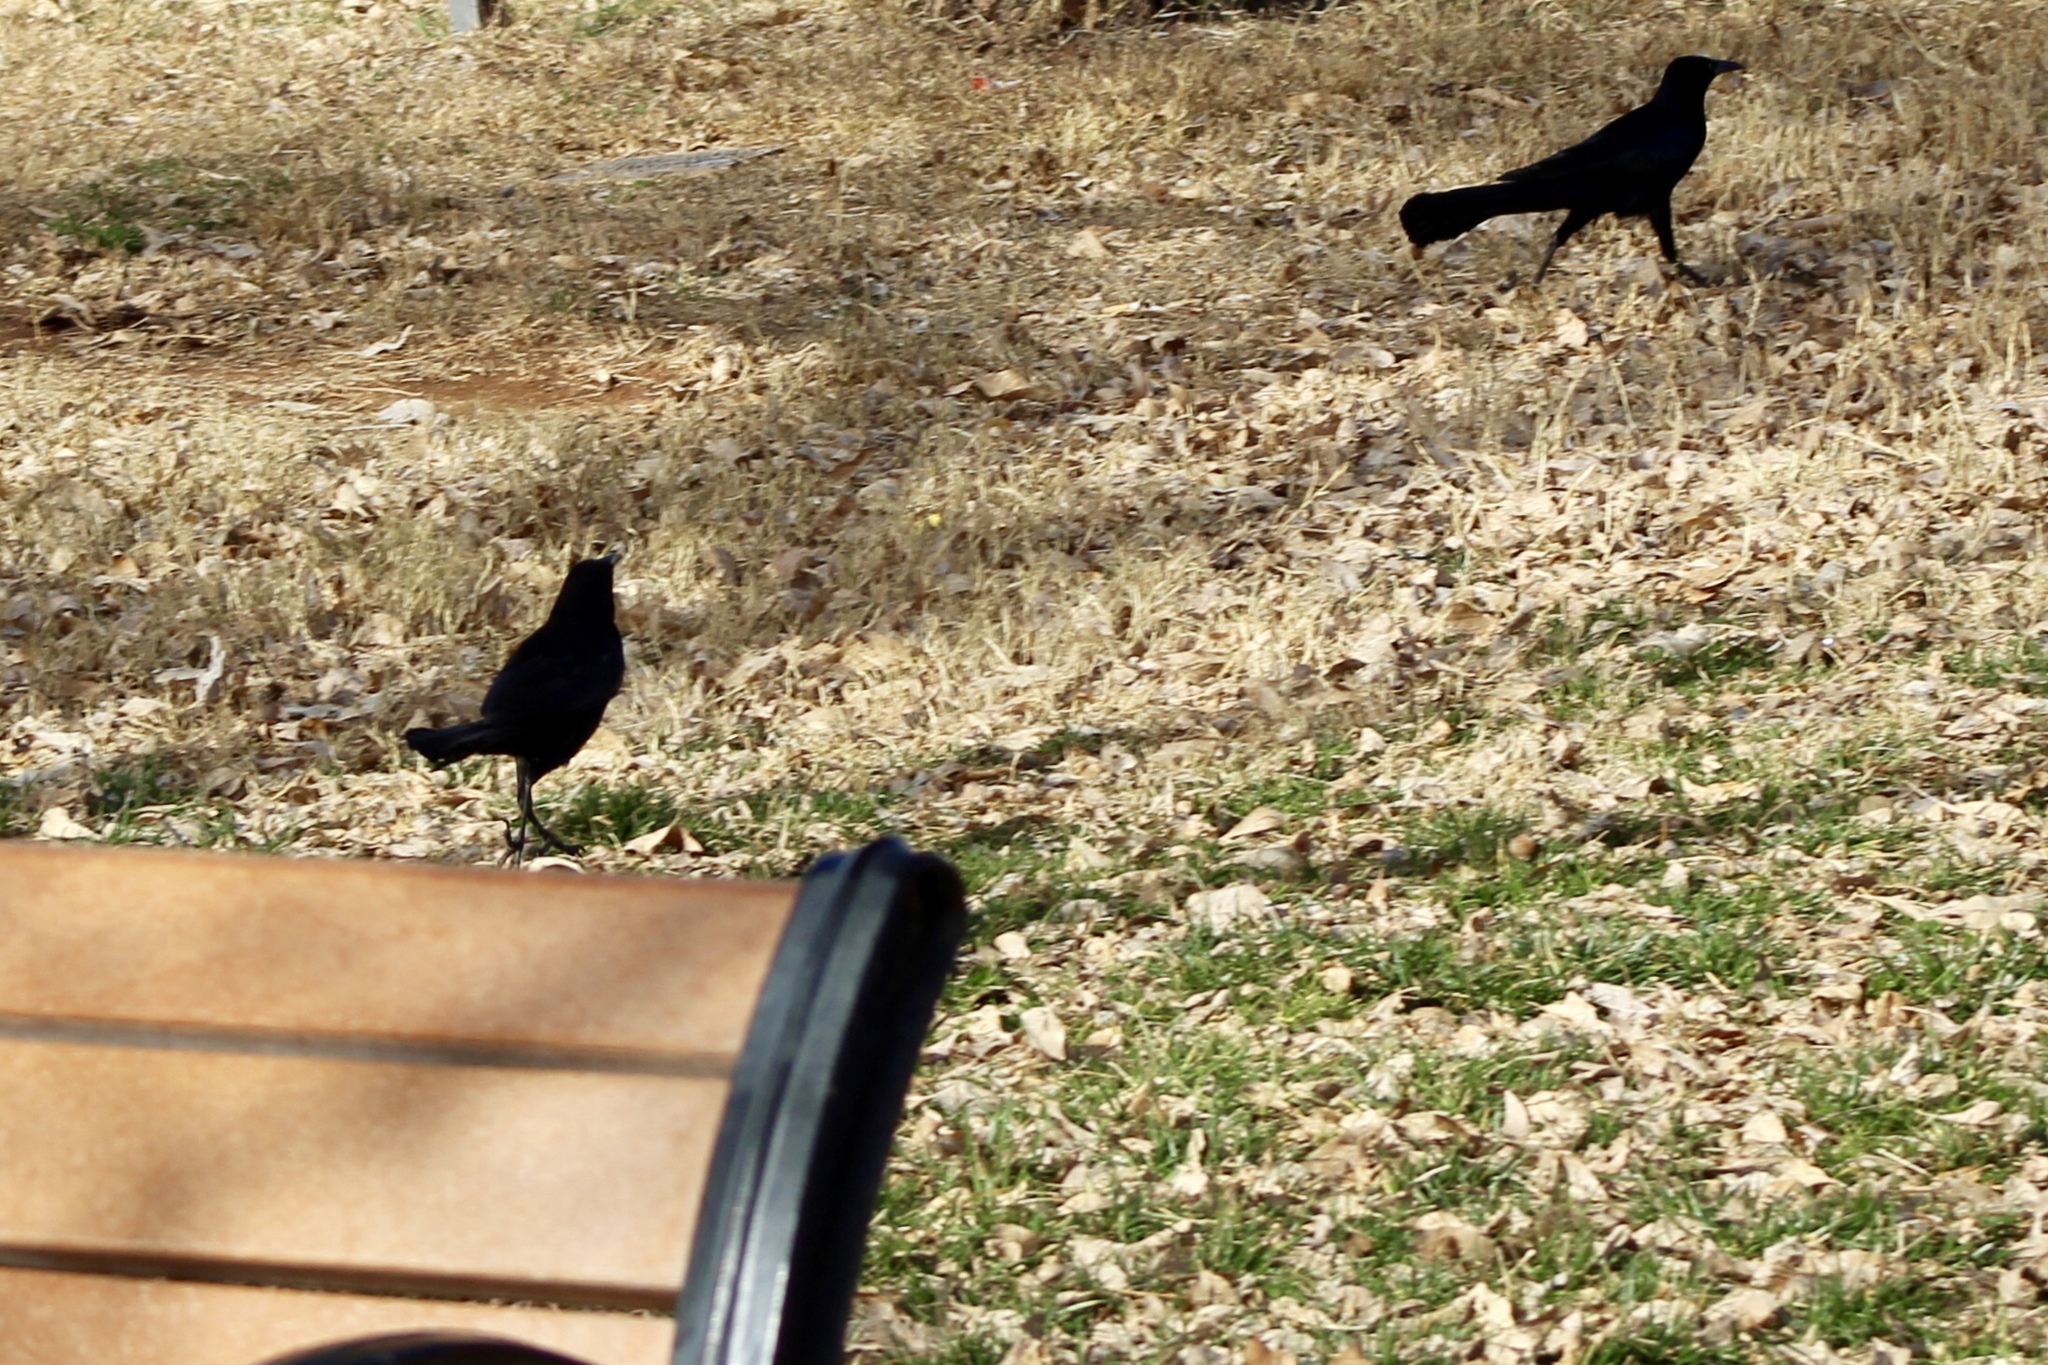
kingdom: Animalia
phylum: Chordata
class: Aves
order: Passeriformes
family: Icteridae
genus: Quiscalus
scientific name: Quiscalus mexicanus
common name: Great-tailed grackle
